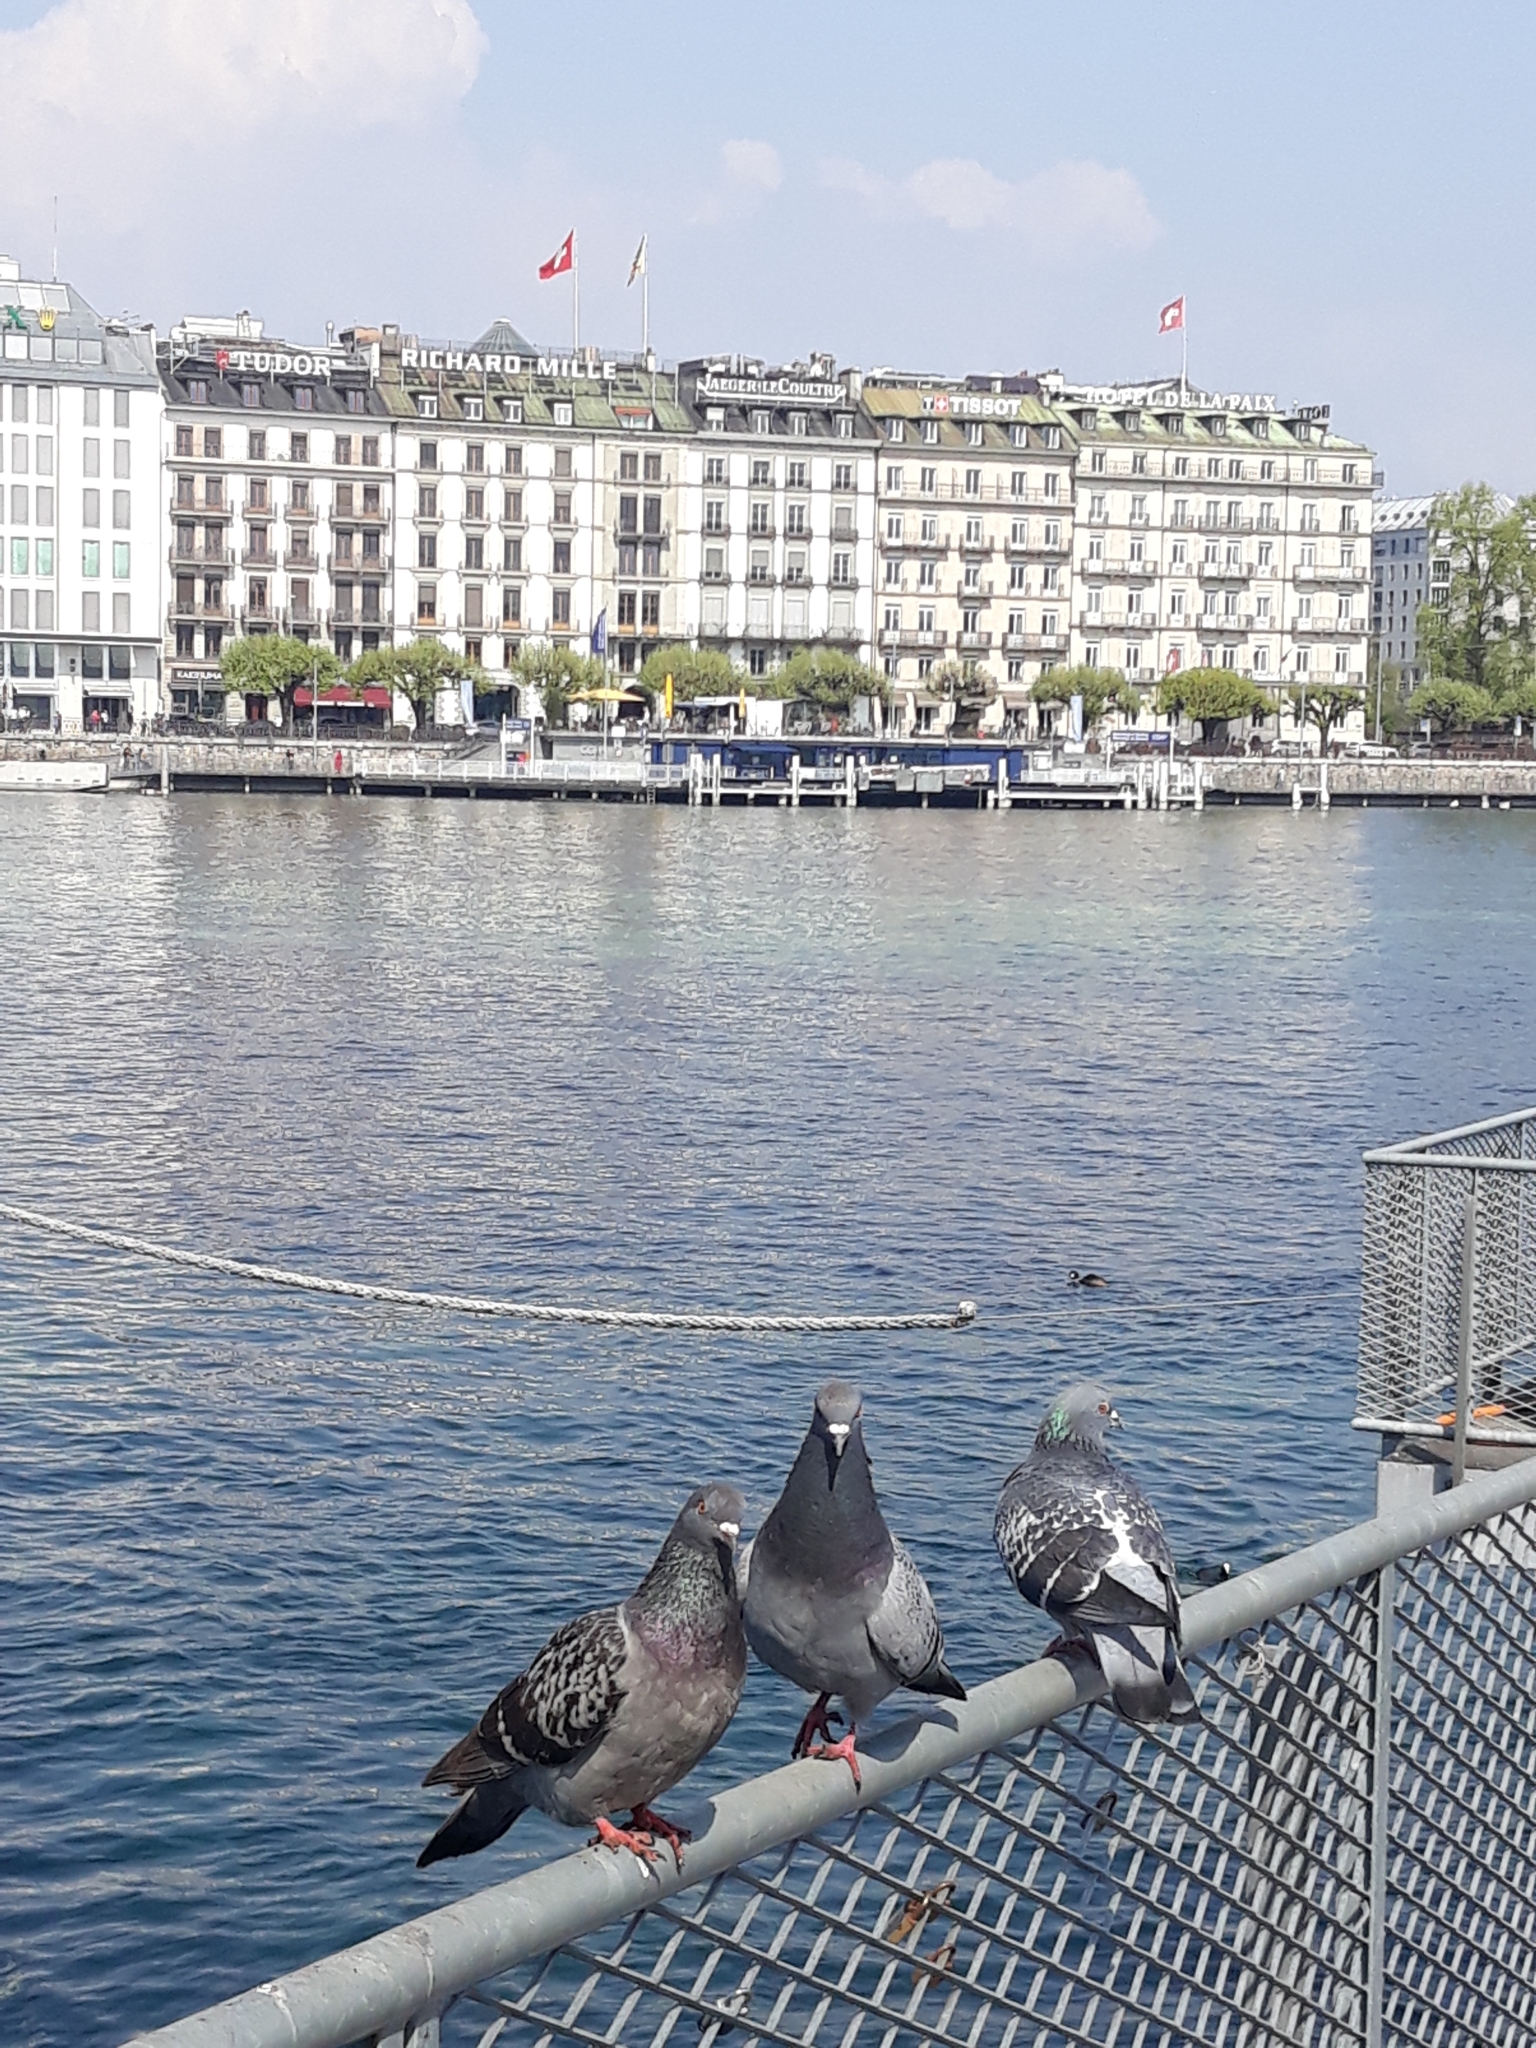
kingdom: Animalia
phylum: Chordata
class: Aves
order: Columbiformes
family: Columbidae
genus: Columba
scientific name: Columba livia
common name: Rock pigeon
